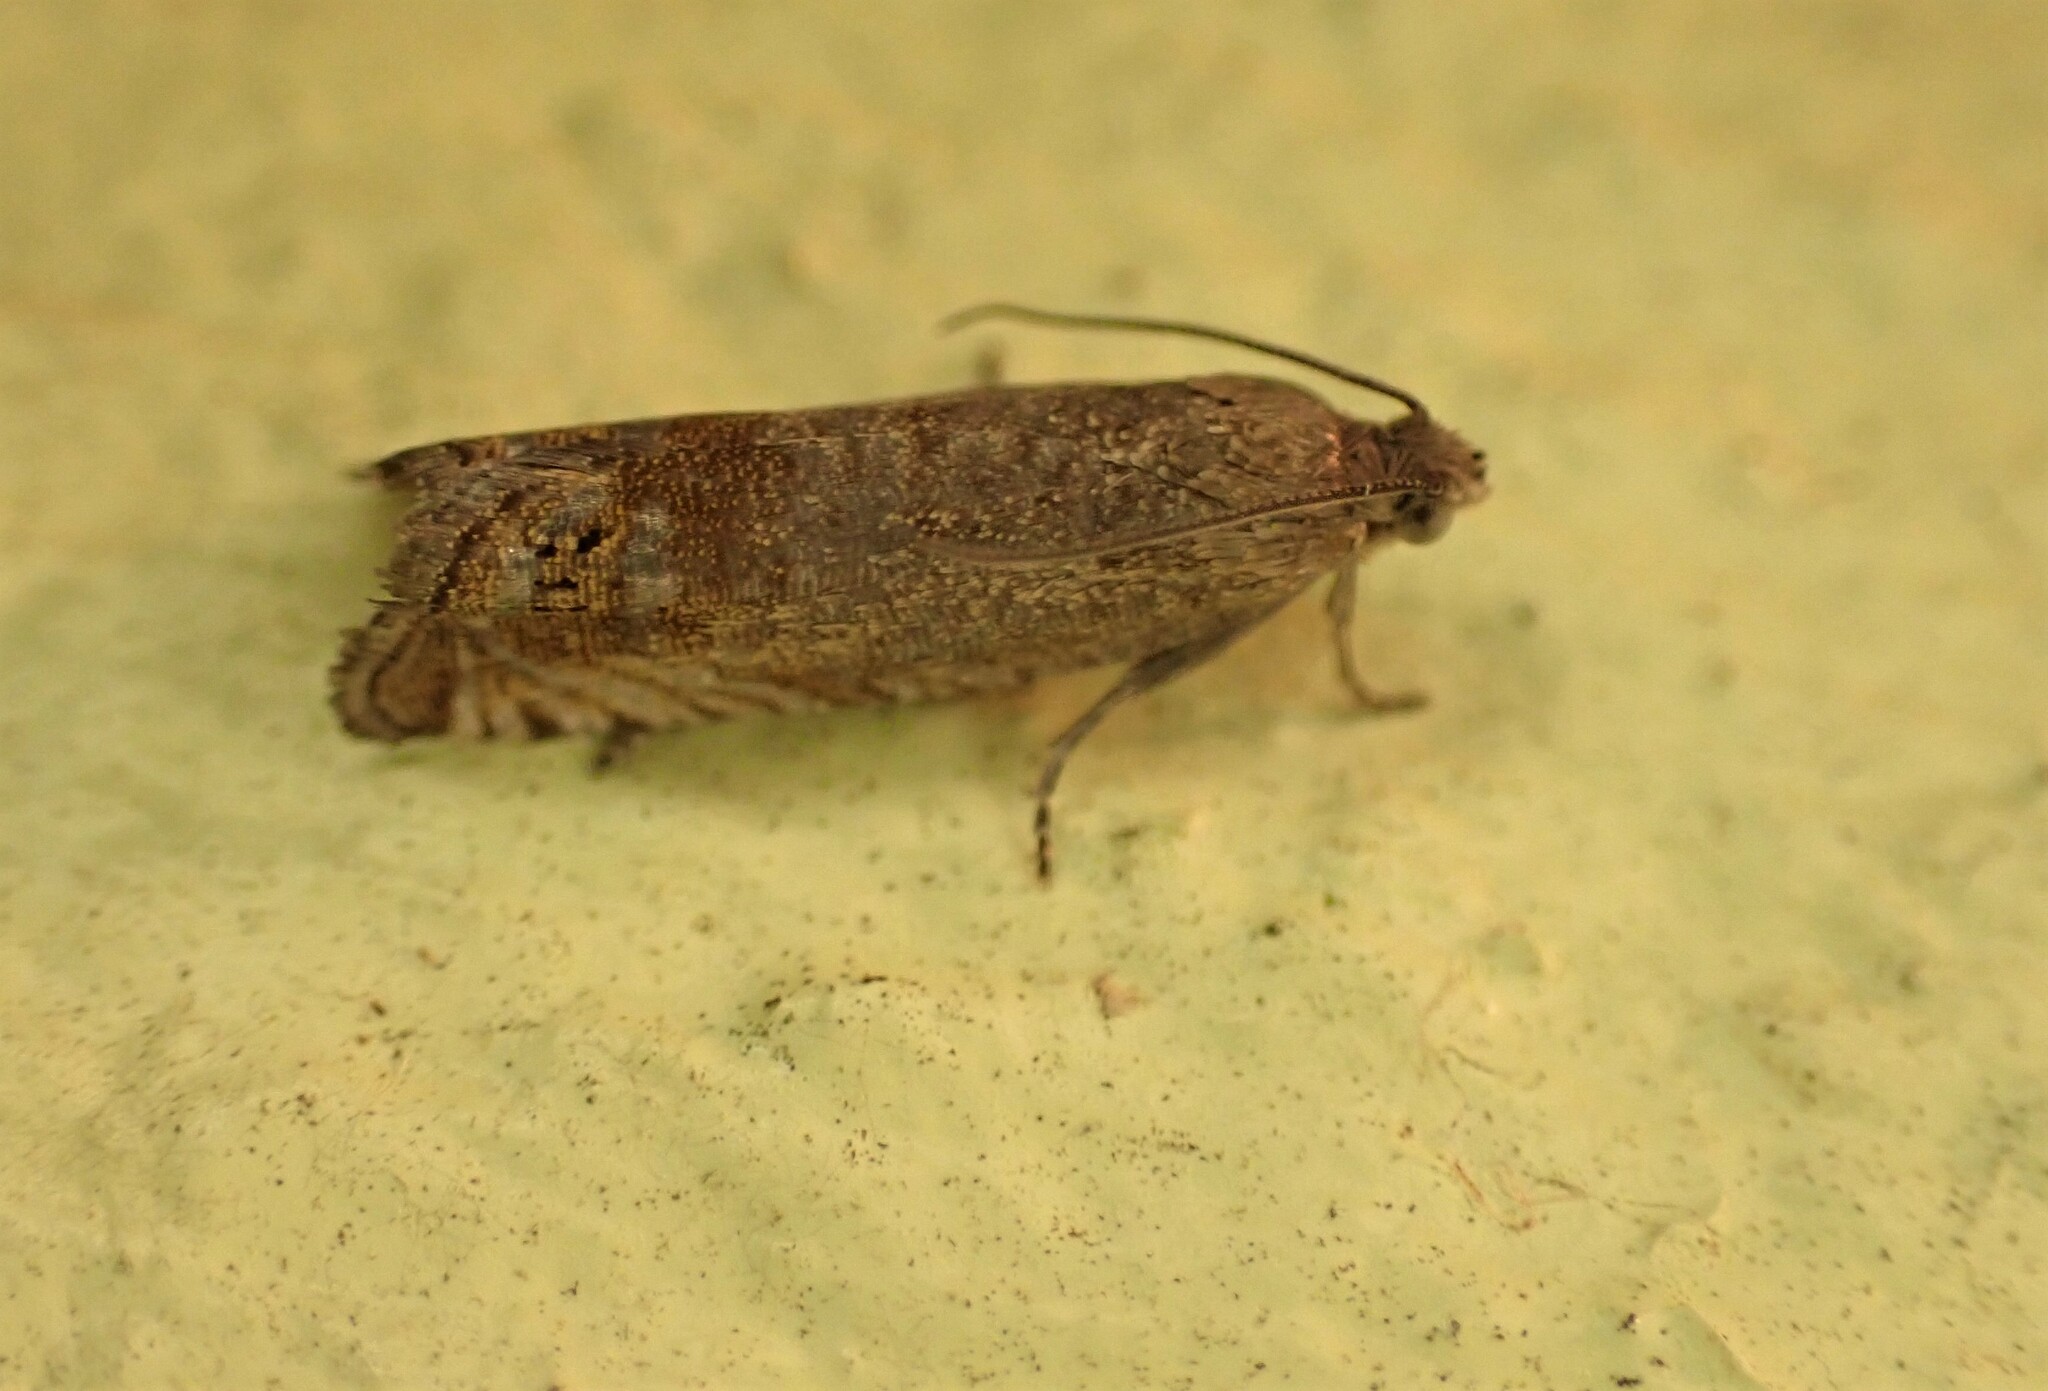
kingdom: Animalia
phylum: Arthropoda
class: Insecta
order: Lepidoptera
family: Tortricidae
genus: Cydia
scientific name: Cydia succedana
